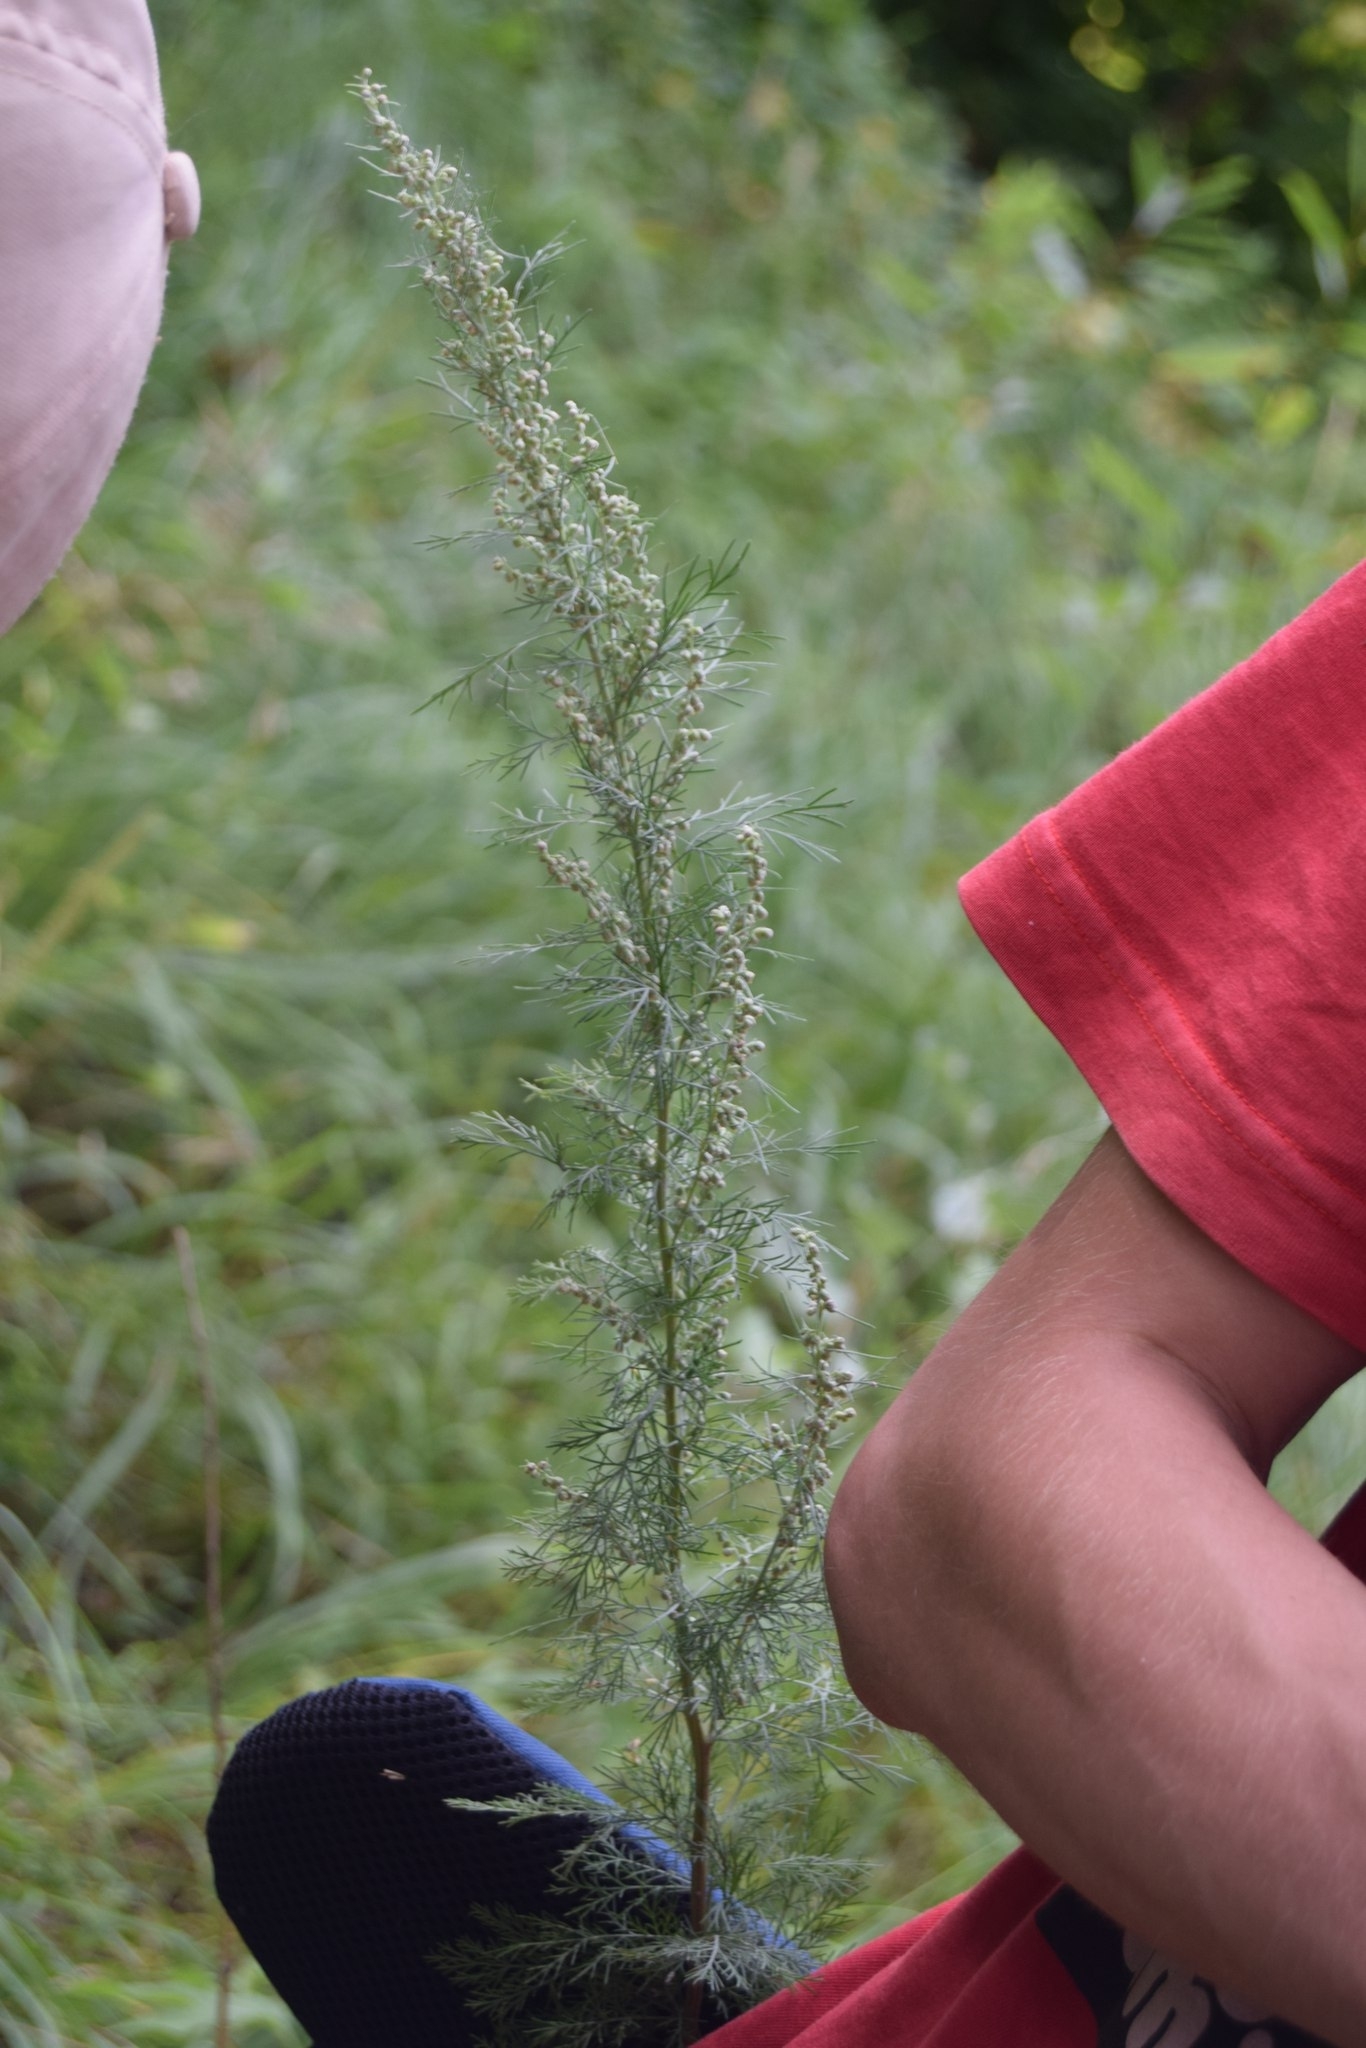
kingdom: Plantae
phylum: Tracheophyta
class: Magnoliopsida
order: Asterales
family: Asteraceae
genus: Artemisia
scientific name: Artemisia abrotanum
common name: Southernwood
